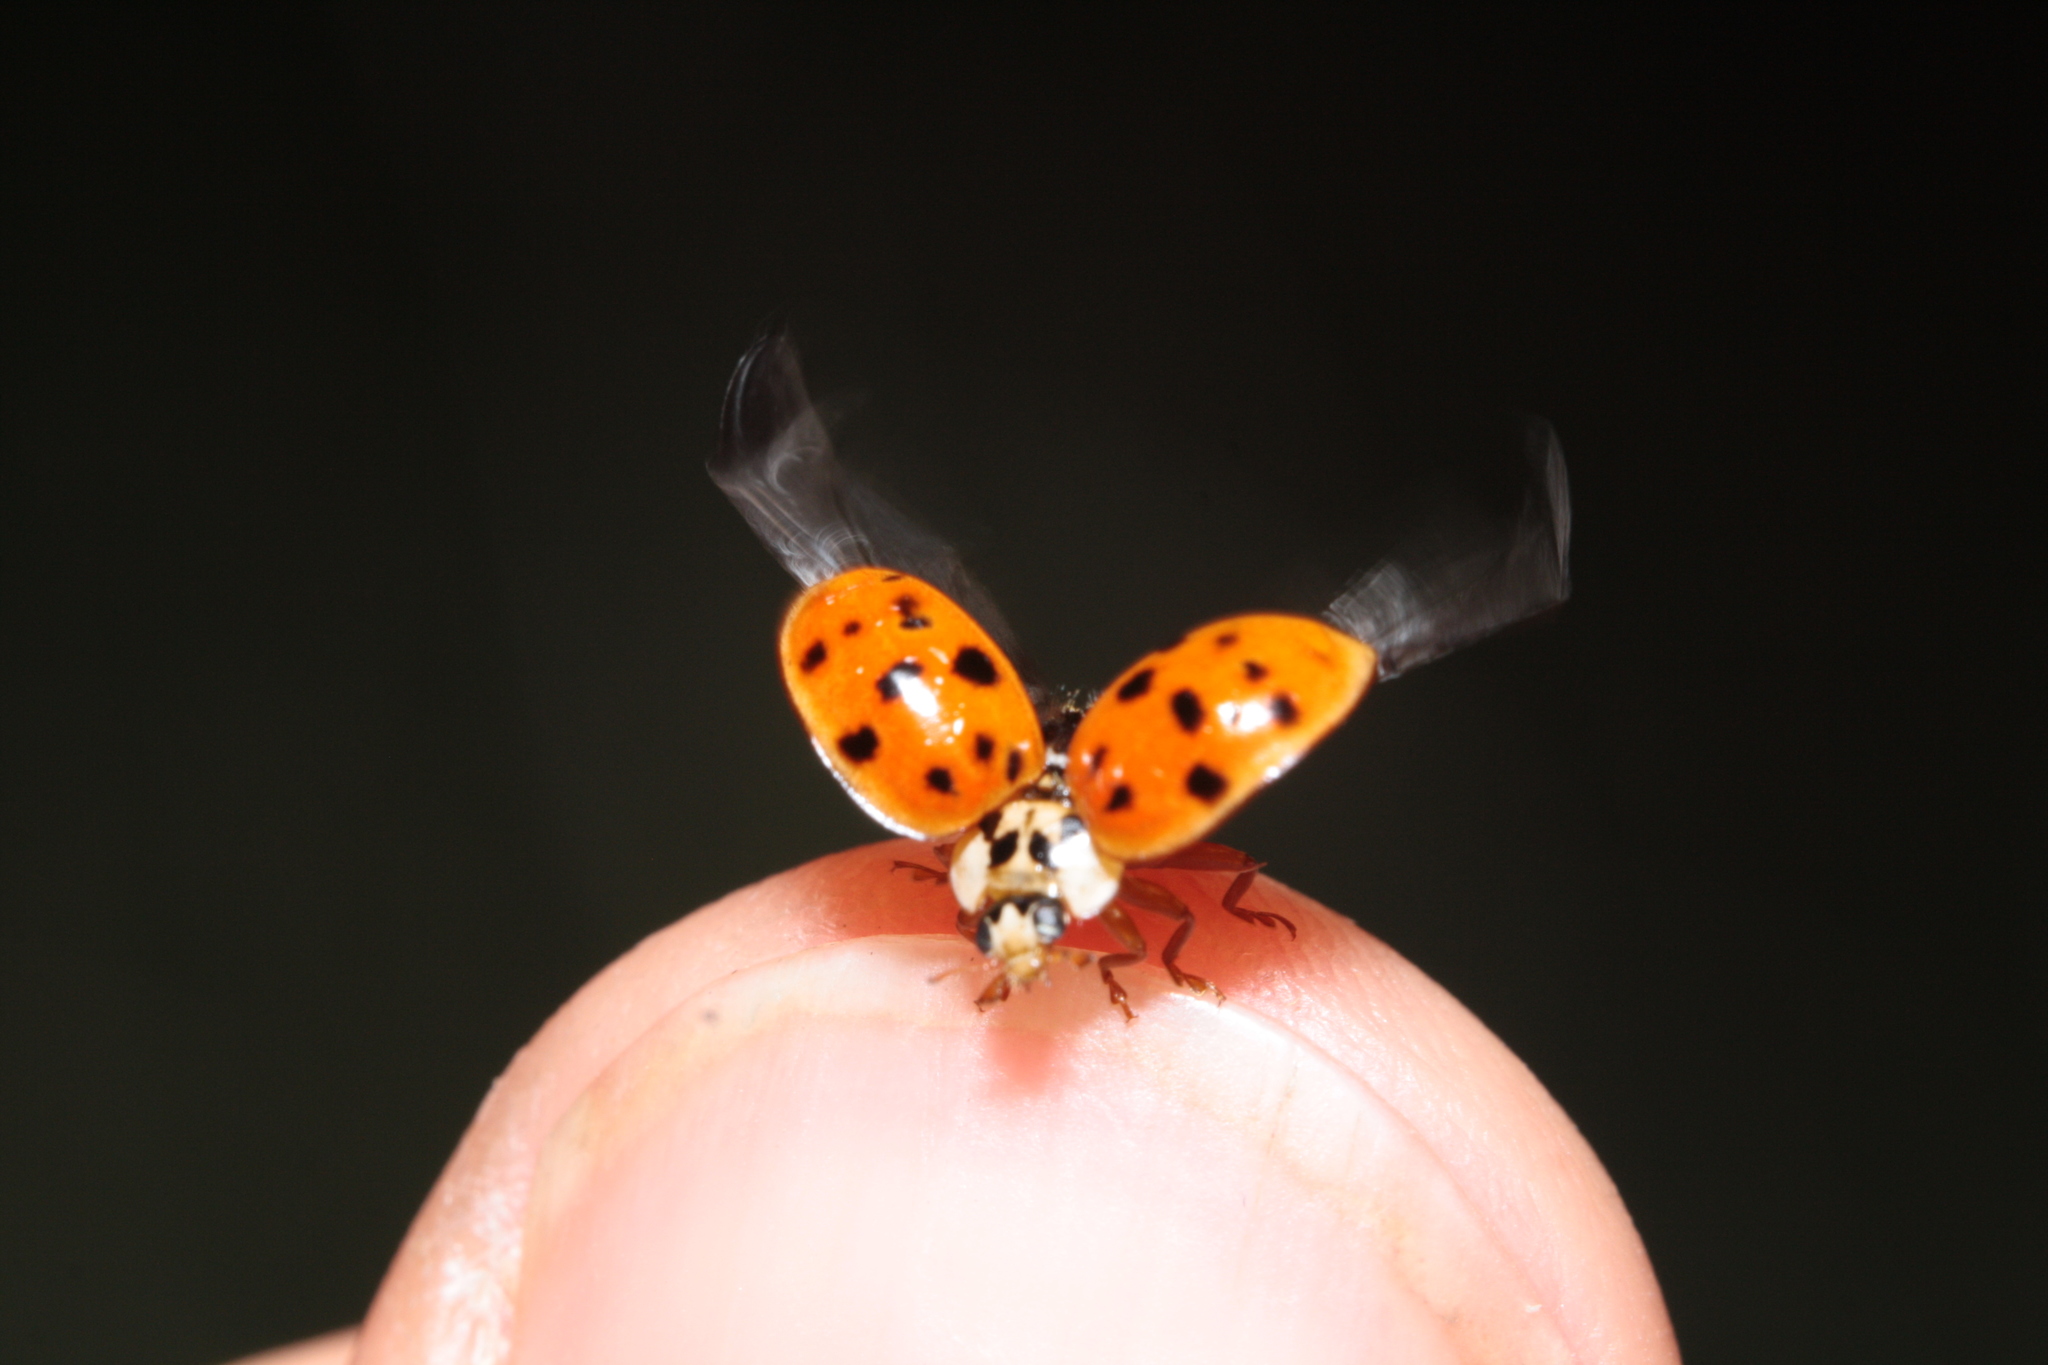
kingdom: Animalia
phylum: Arthropoda
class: Insecta
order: Coleoptera
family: Coccinellidae
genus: Harmonia
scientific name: Harmonia axyridis
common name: Harlequin ladybird
